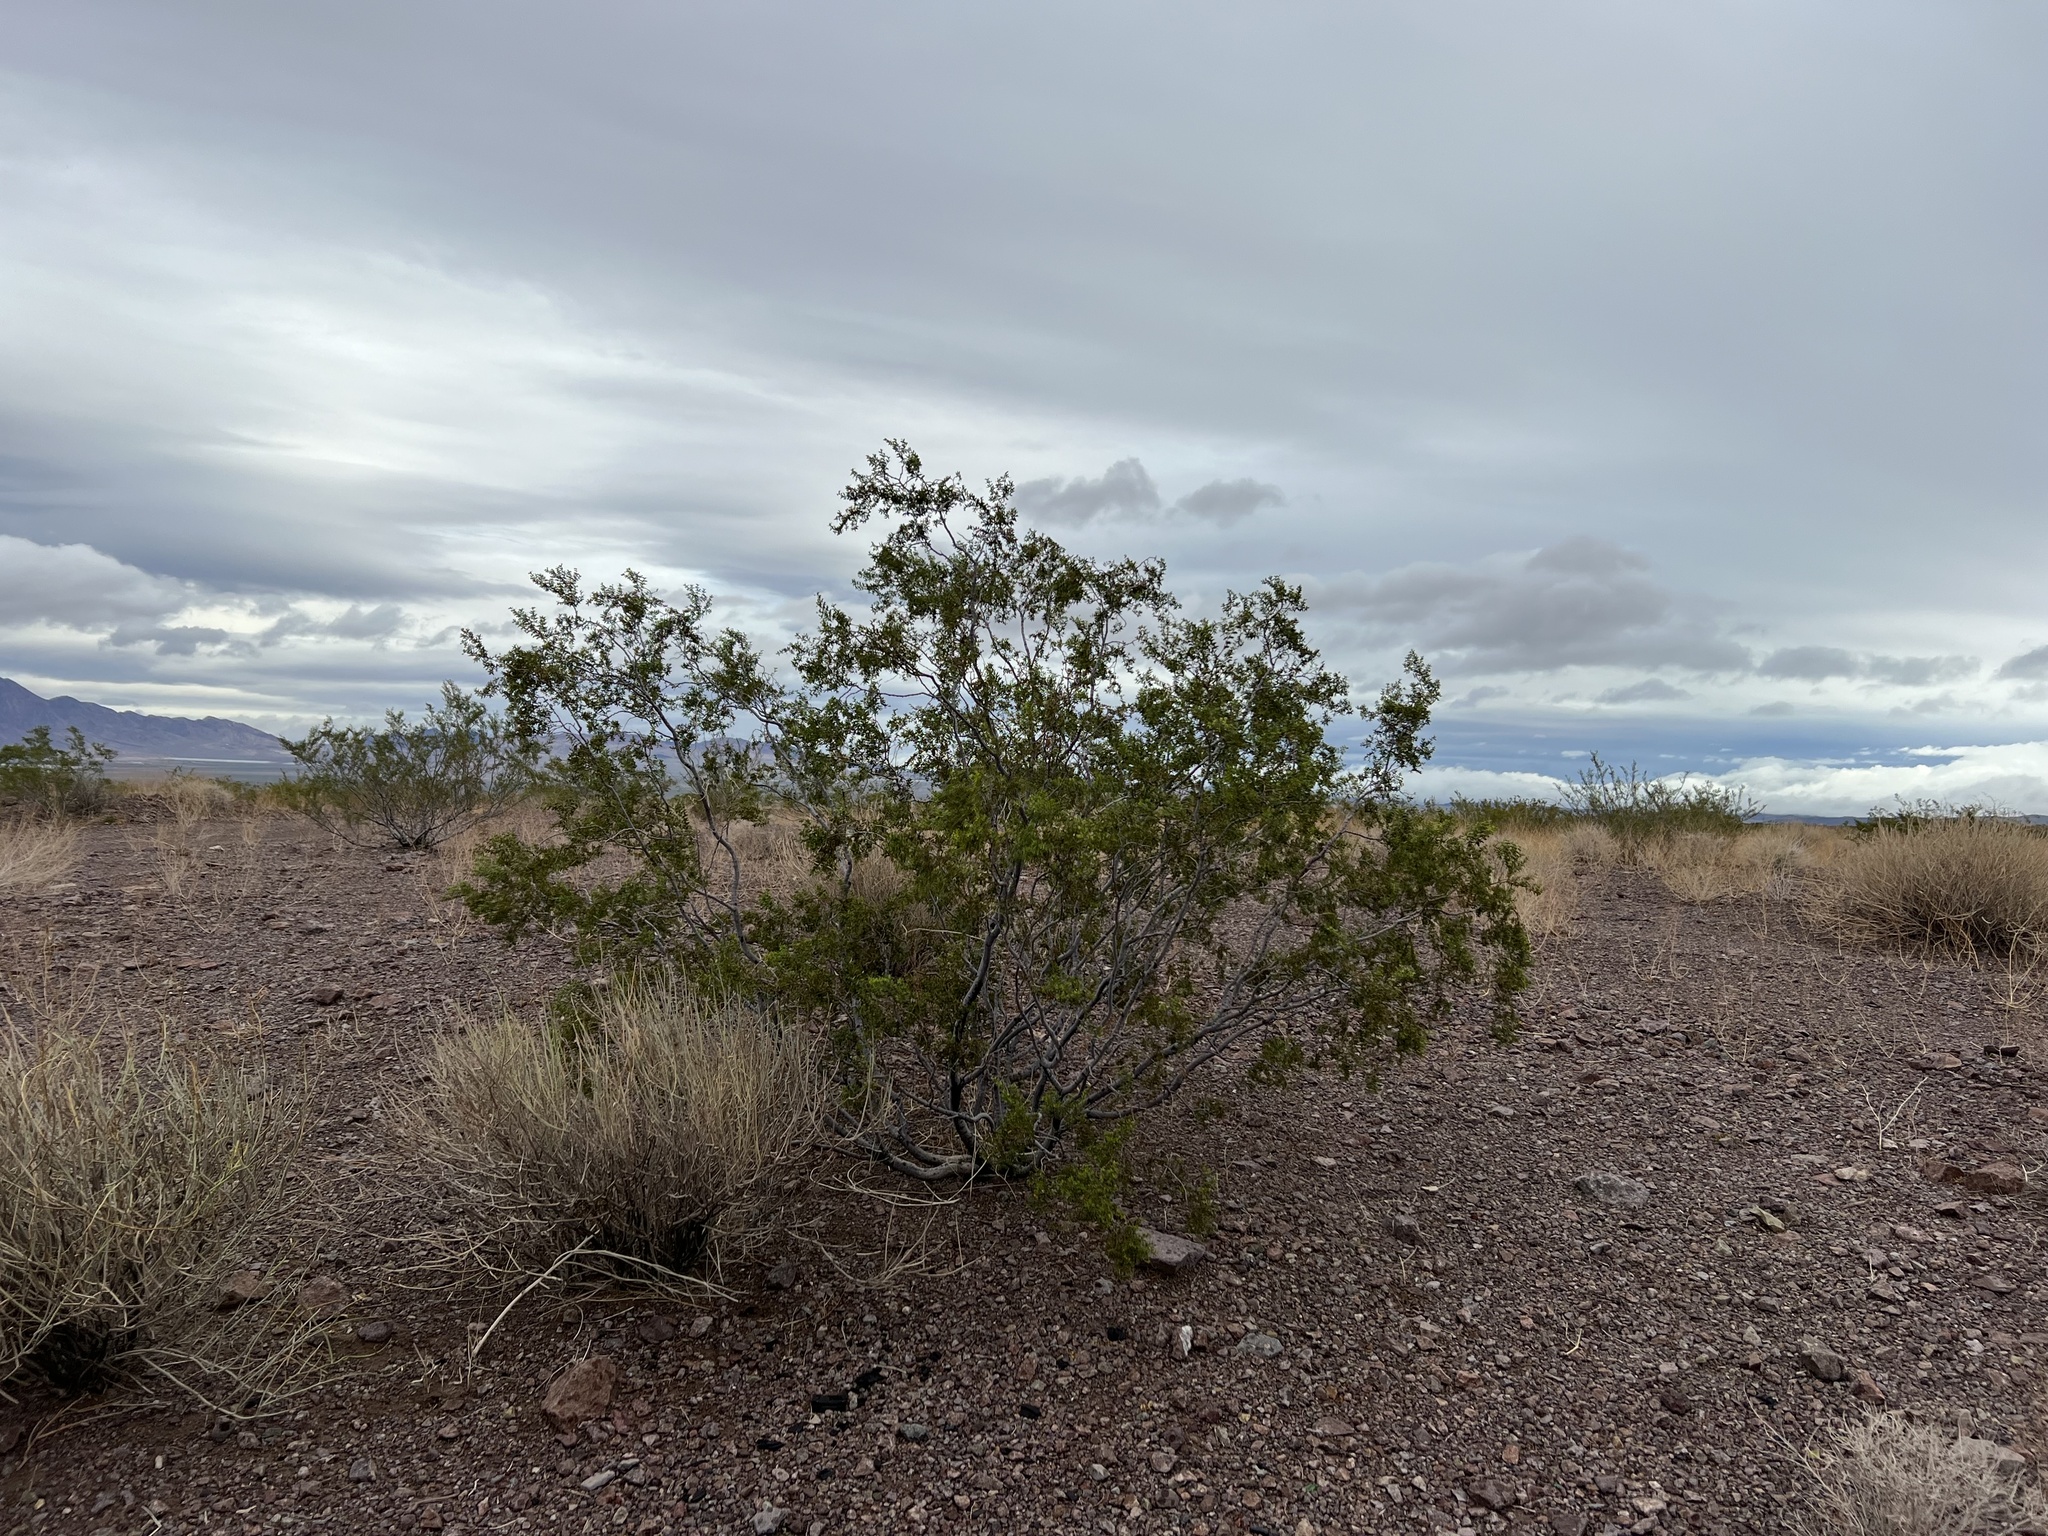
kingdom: Plantae
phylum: Tracheophyta
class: Magnoliopsida
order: Zygophyllales
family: Zygophyllaceae
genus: Larrea
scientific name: Larrea tridentata
